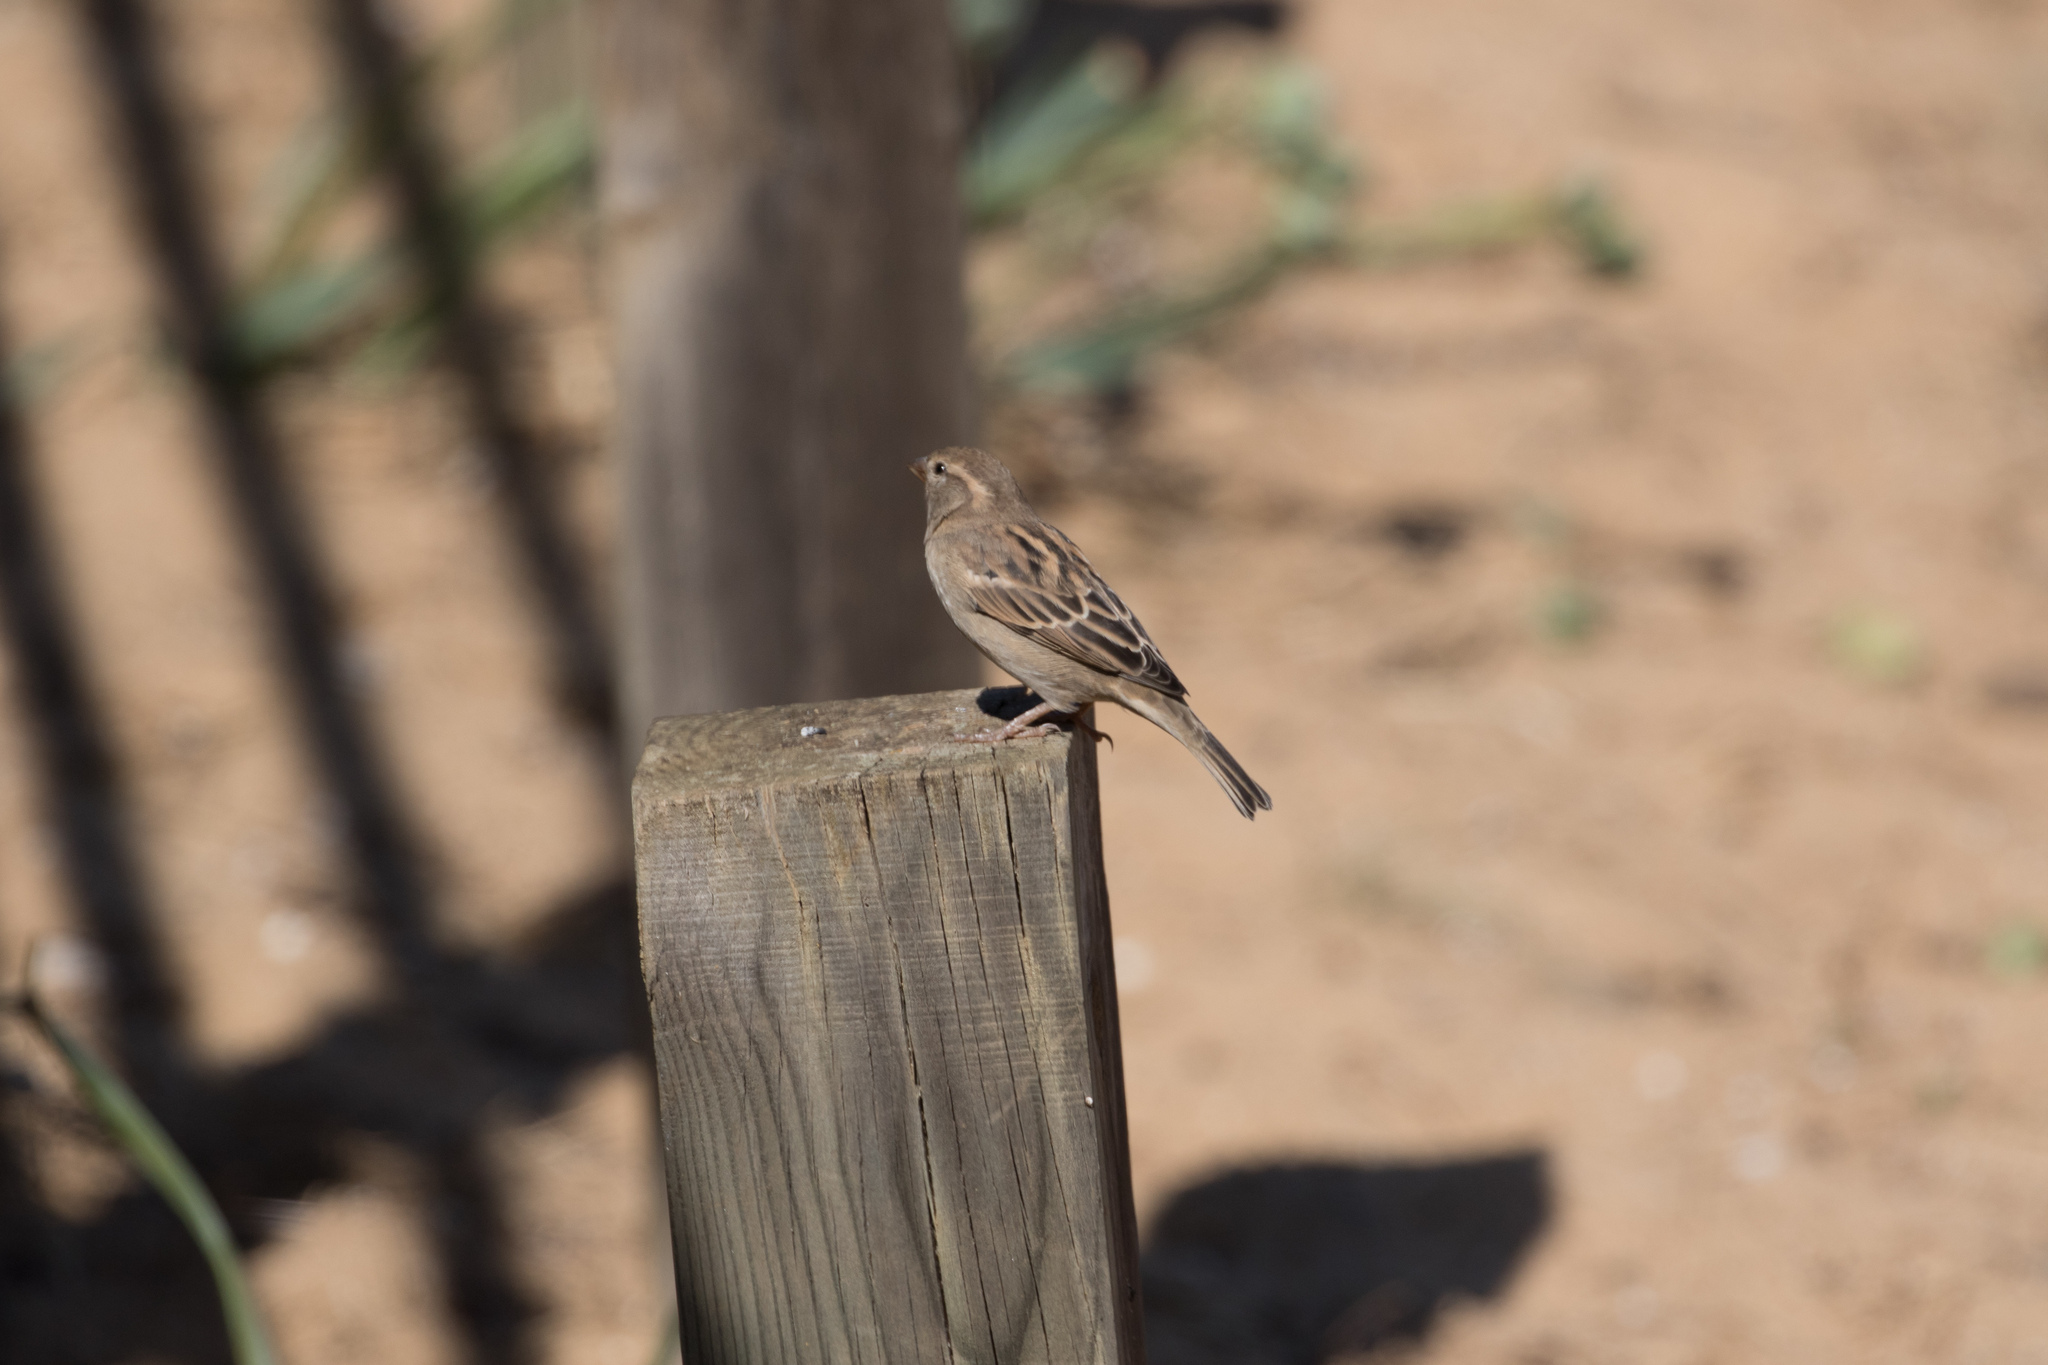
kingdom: Animalia
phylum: Chordata
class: Aves
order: Passeriformes
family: Passeridae
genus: Passer
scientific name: Passer domesticus
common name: House sparrow
